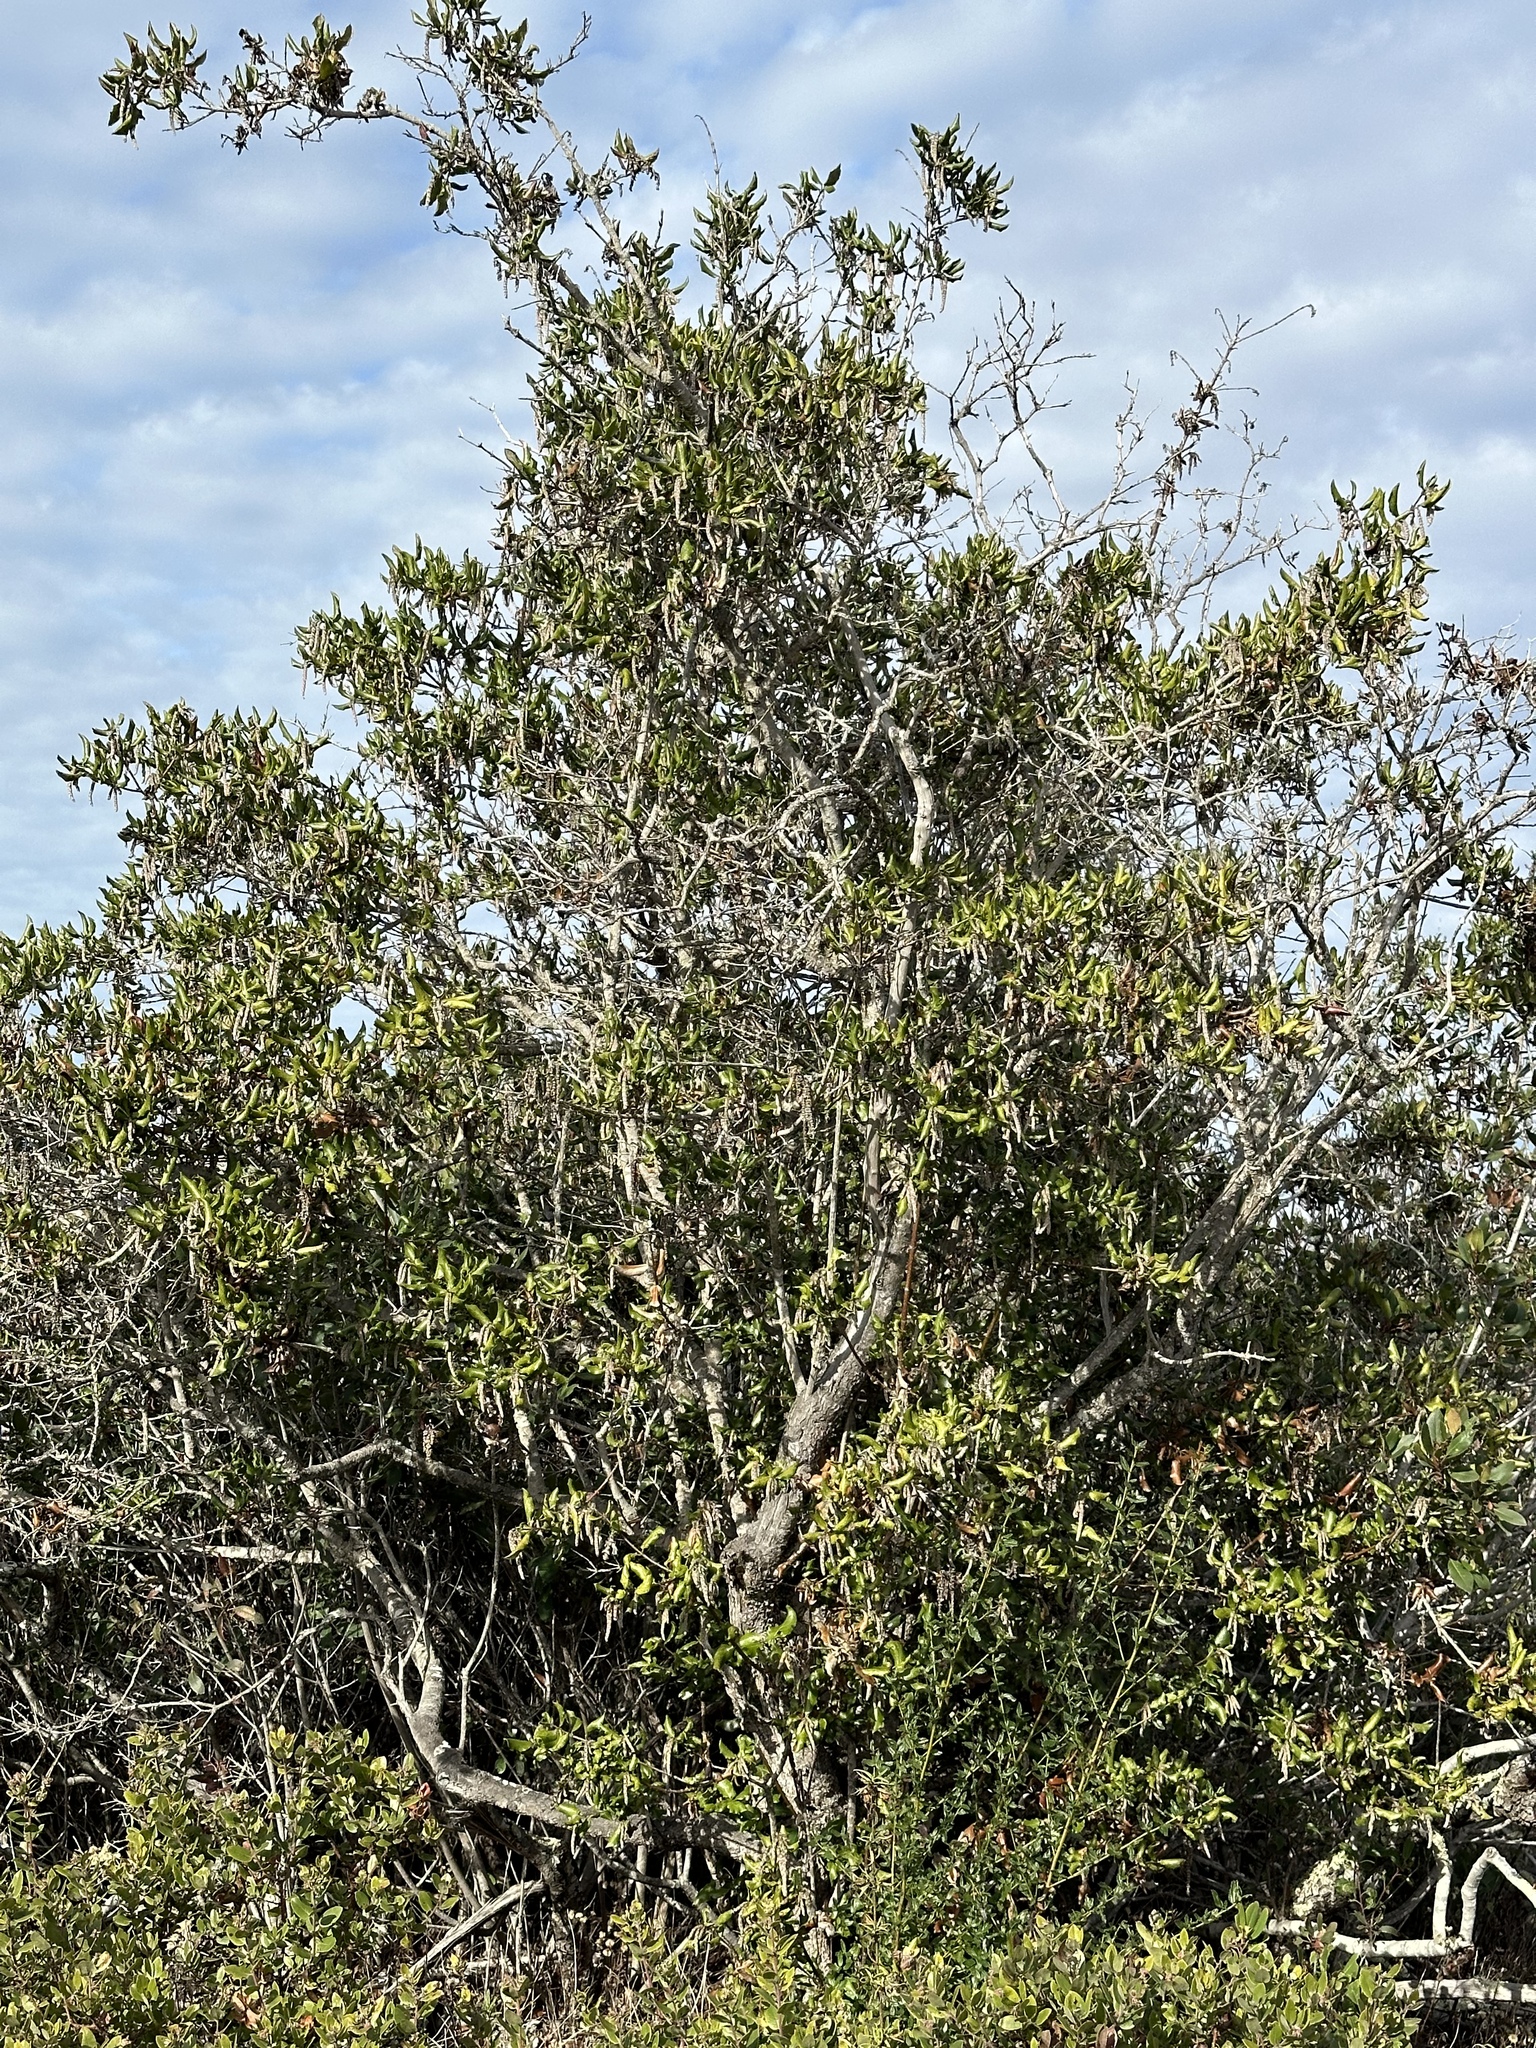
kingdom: Plantae
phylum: Tracheophyta
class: Magnoliopsida
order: Garryales
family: Garryaceae
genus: Garrya
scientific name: Garrya elliptica
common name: Silk-tassel
